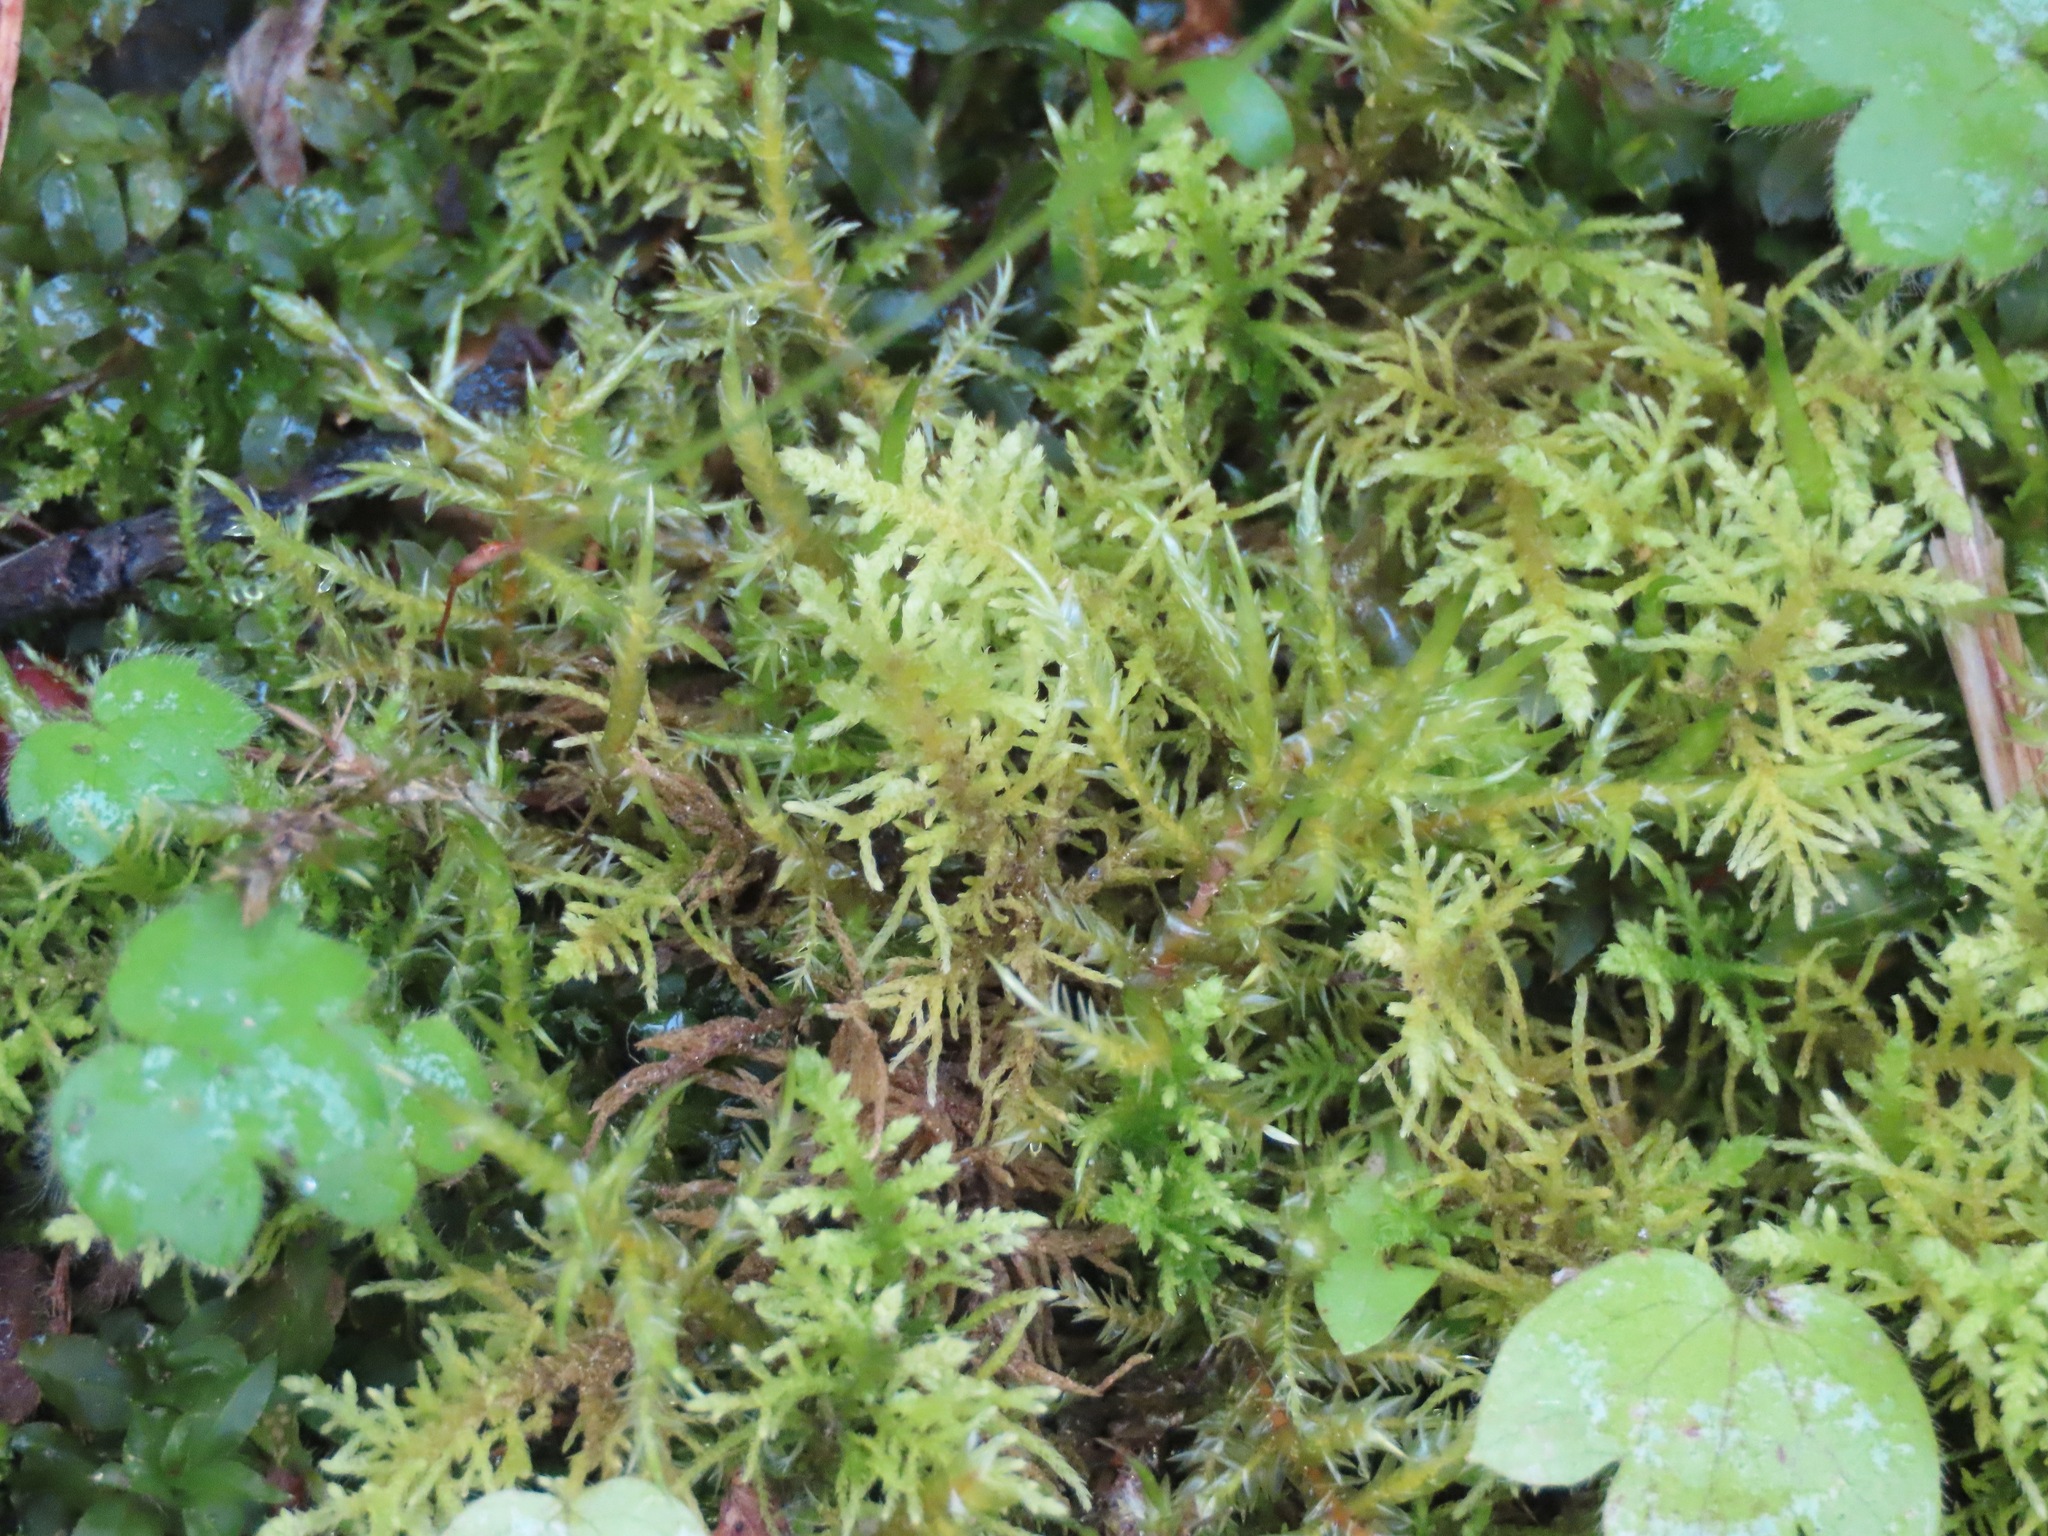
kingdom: Plantae
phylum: Bryophyta
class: Bryopsida
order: Hypnales
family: Hylocomiaceae
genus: Hylocomium
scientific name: Hylocomium splendens
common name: Stairstep moss
